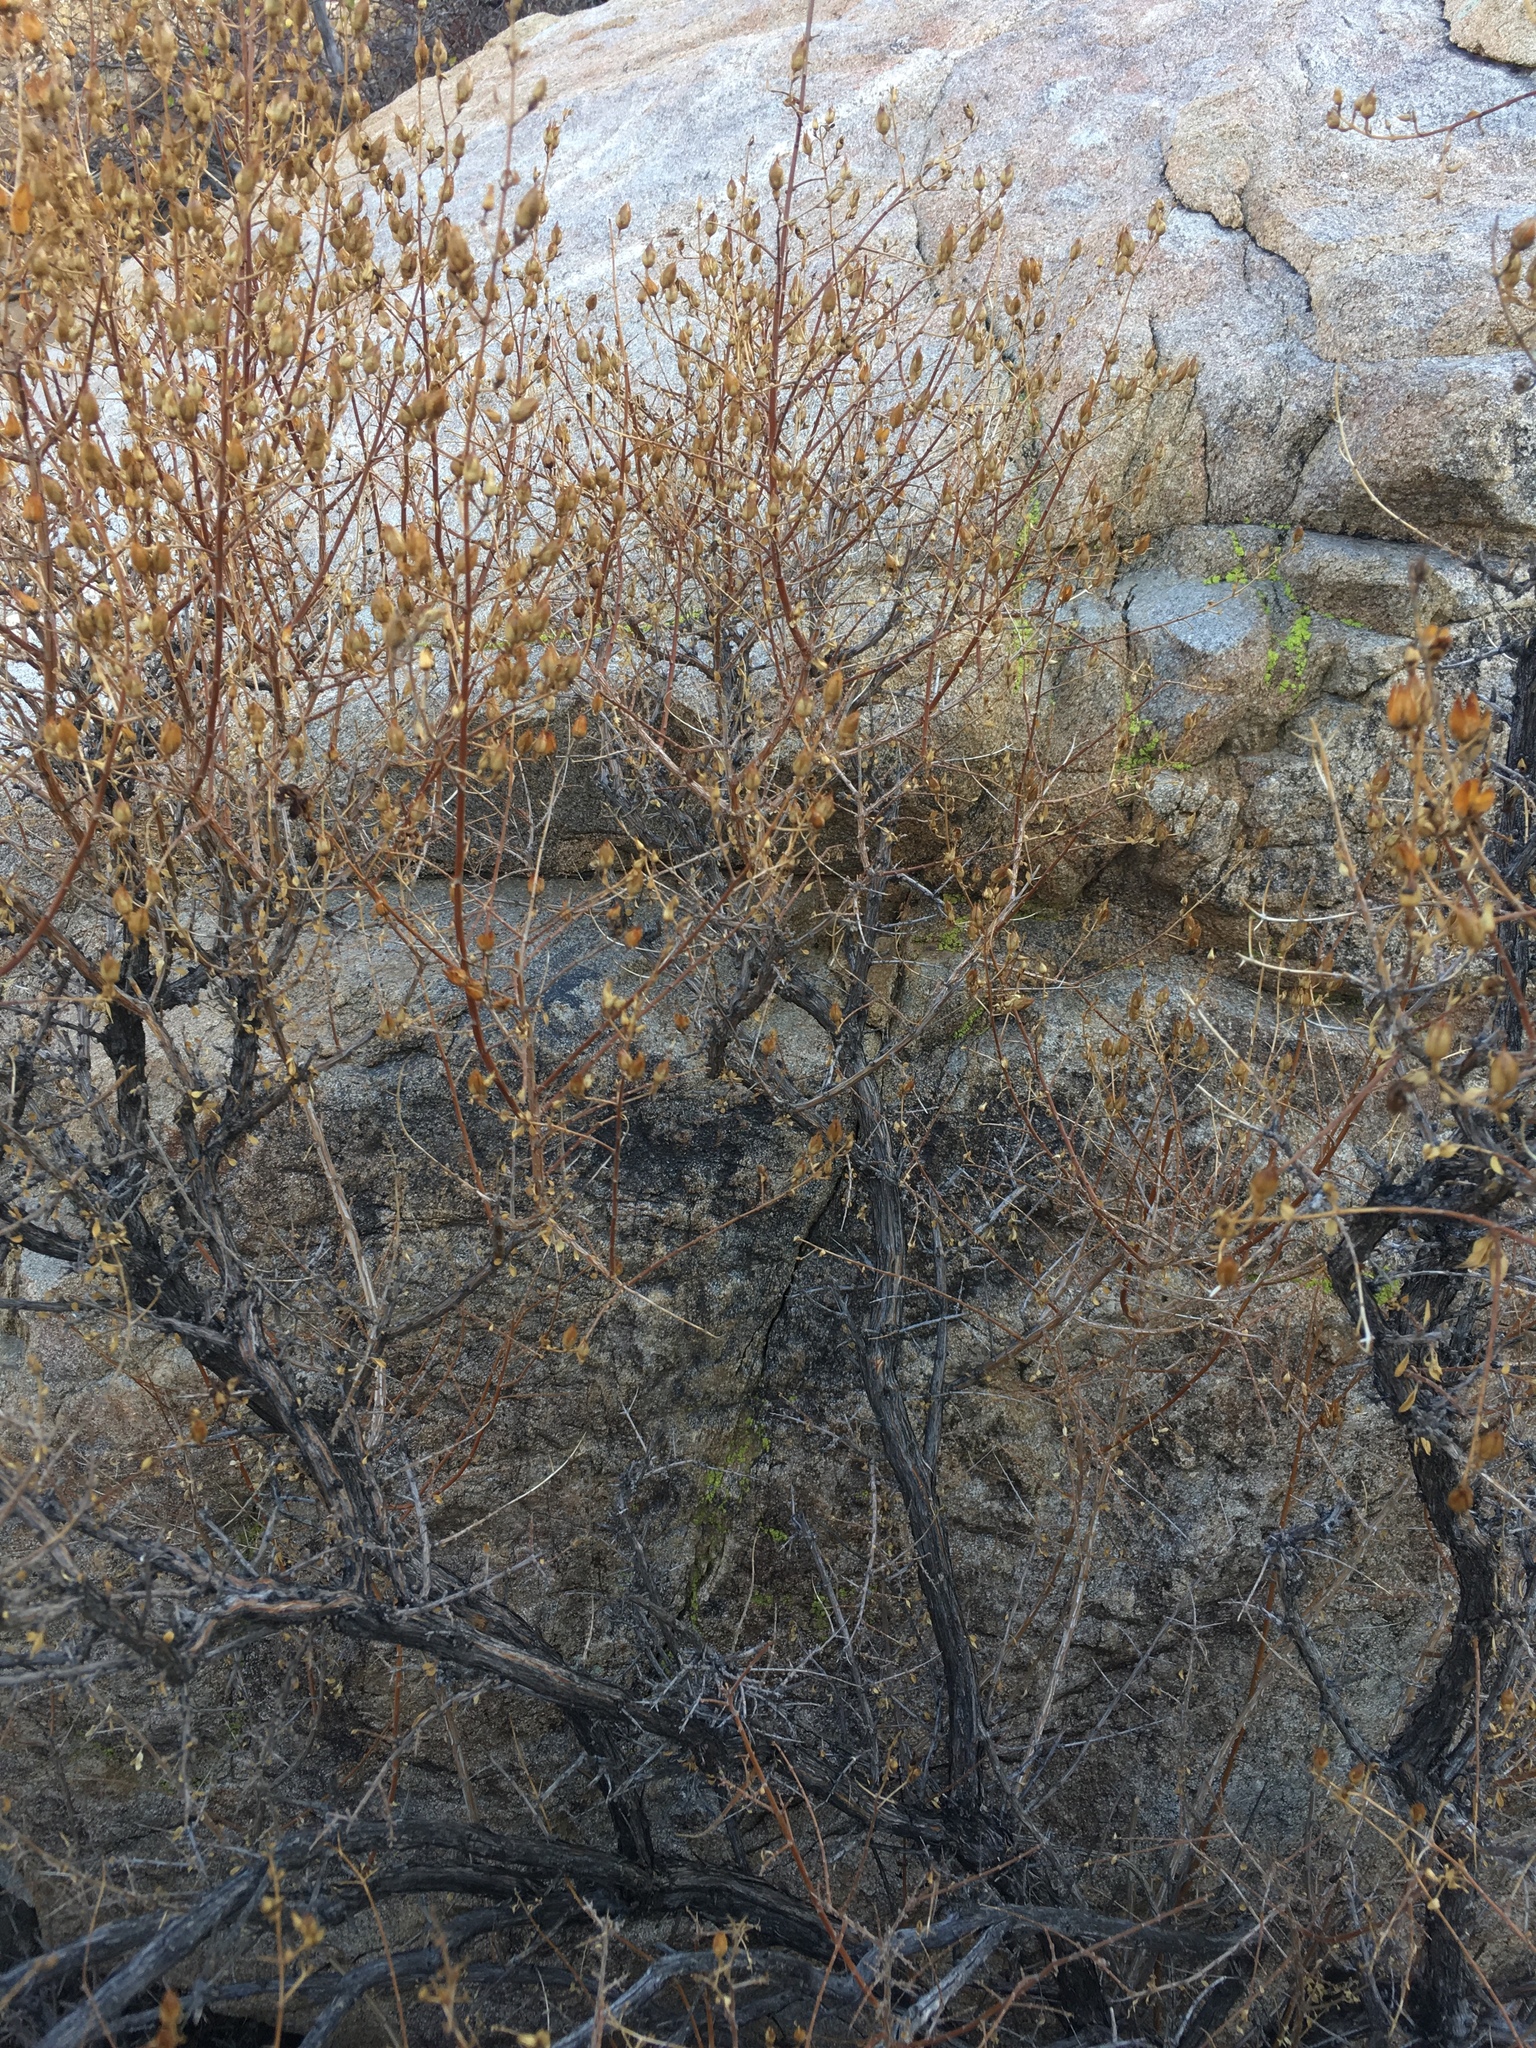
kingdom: Plantae
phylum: Tracheophyta
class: Magnoliopsida
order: Lamiales
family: Plantaginaceae
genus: Keckiella
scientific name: Keckiella antirrhinoides
